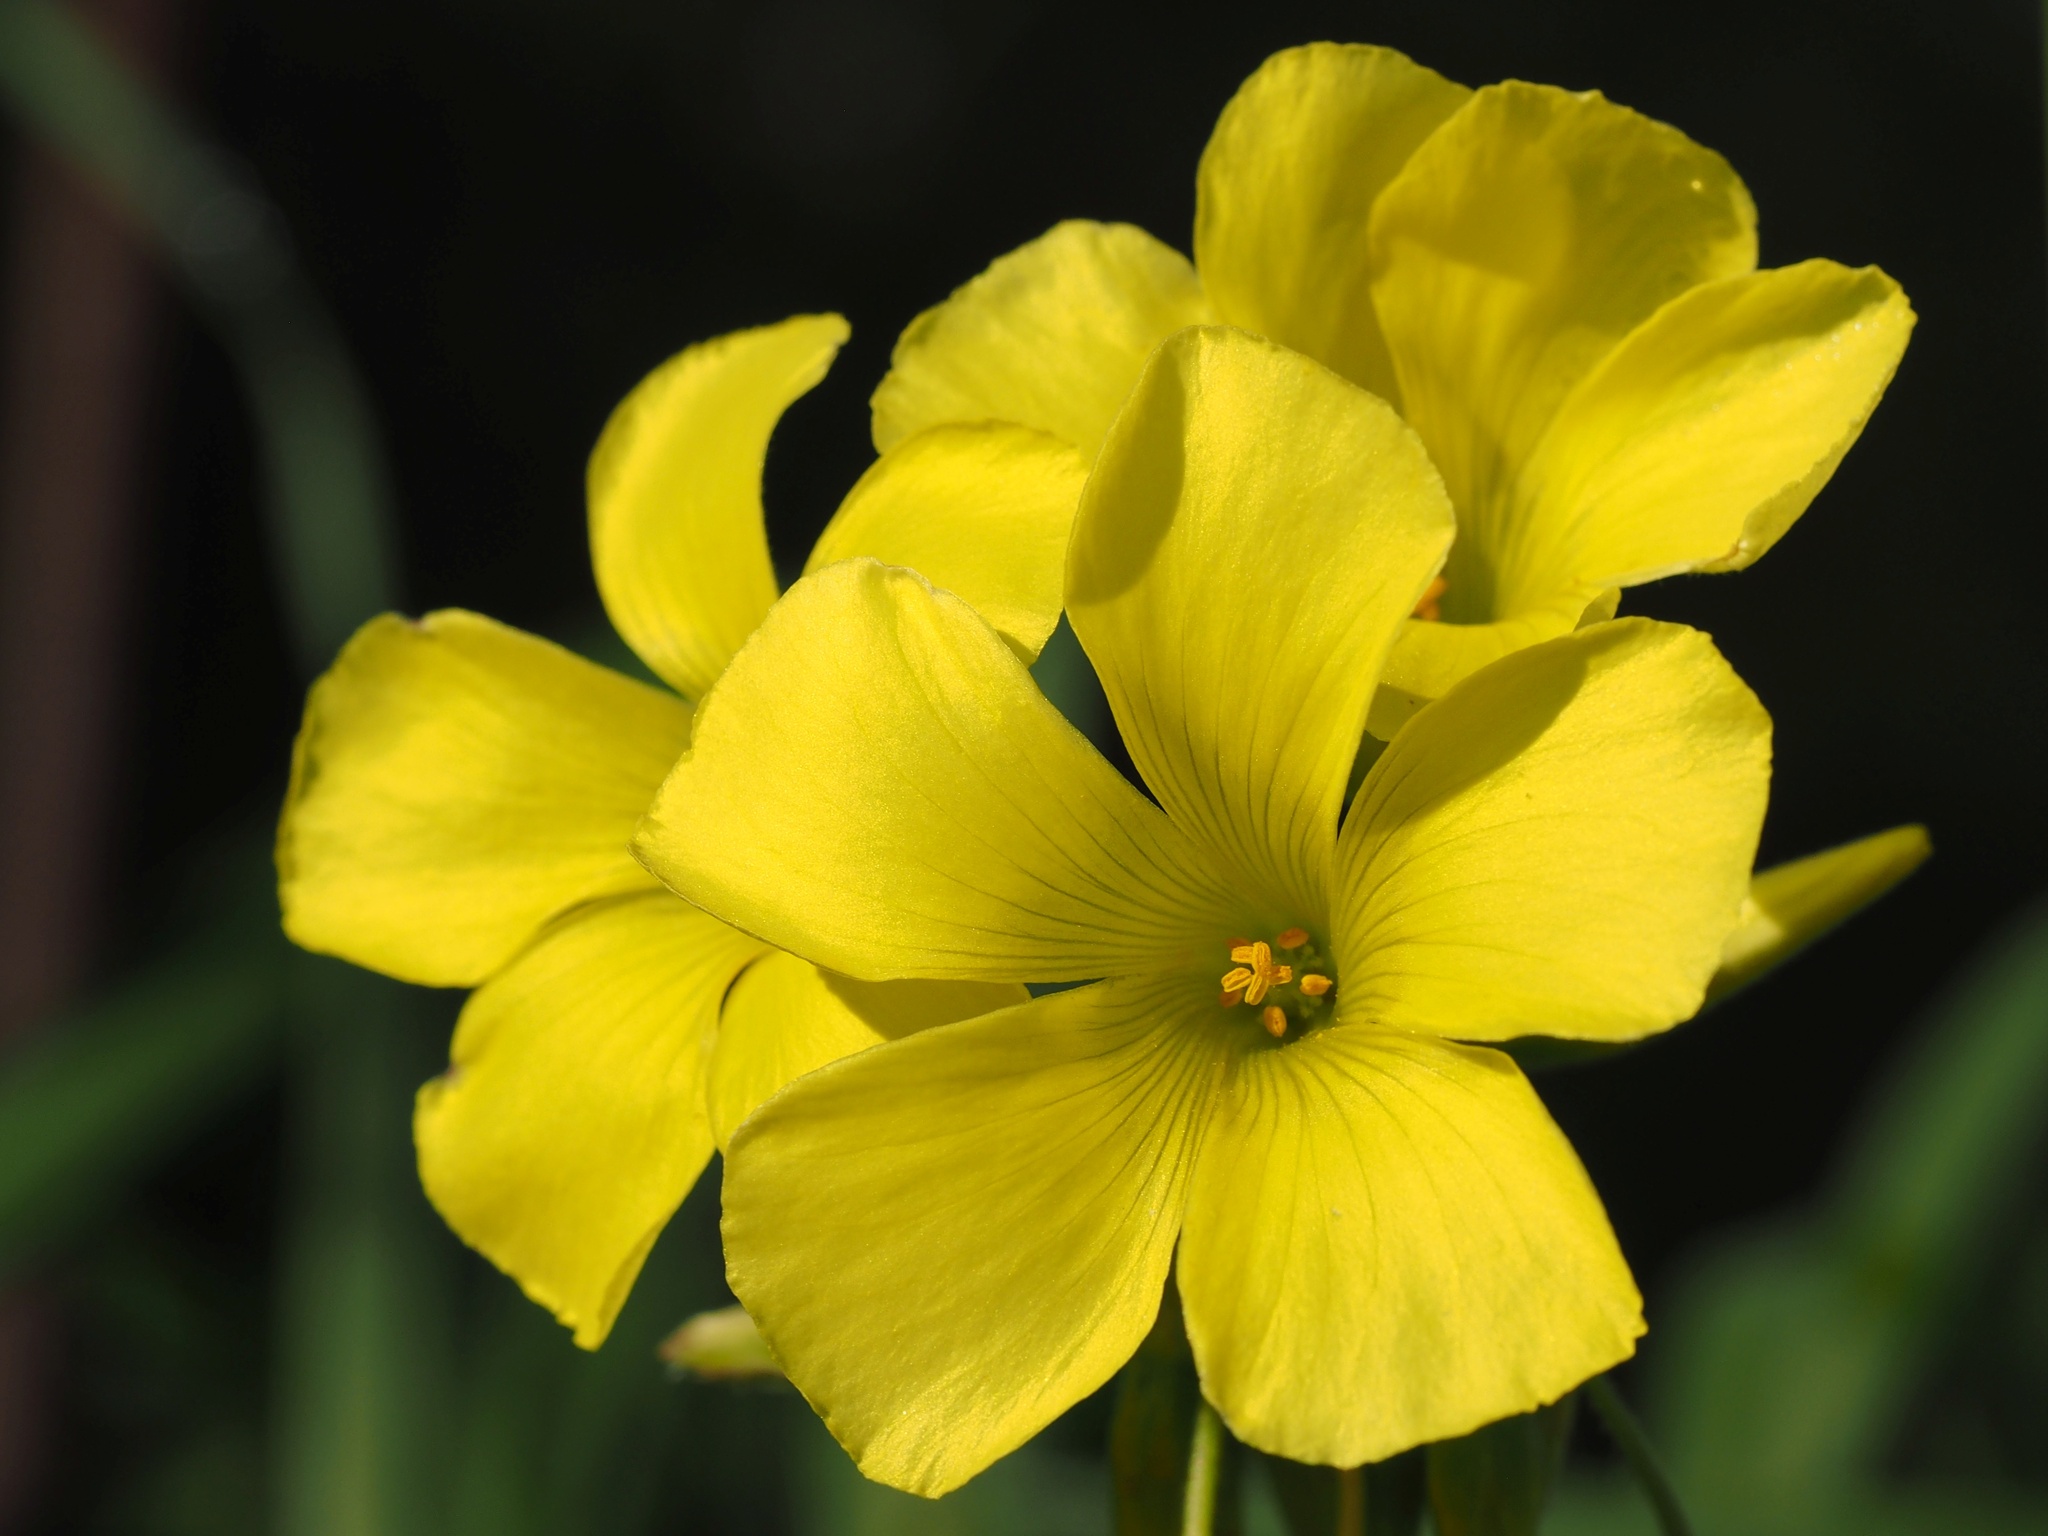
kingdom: Plantae
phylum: Tracheophyta
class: Magnoliopsida
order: Oxalidales
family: Oxalidaceae
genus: Oxalis
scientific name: Oxalis pes-caprae
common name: Bermuda-buttercup
